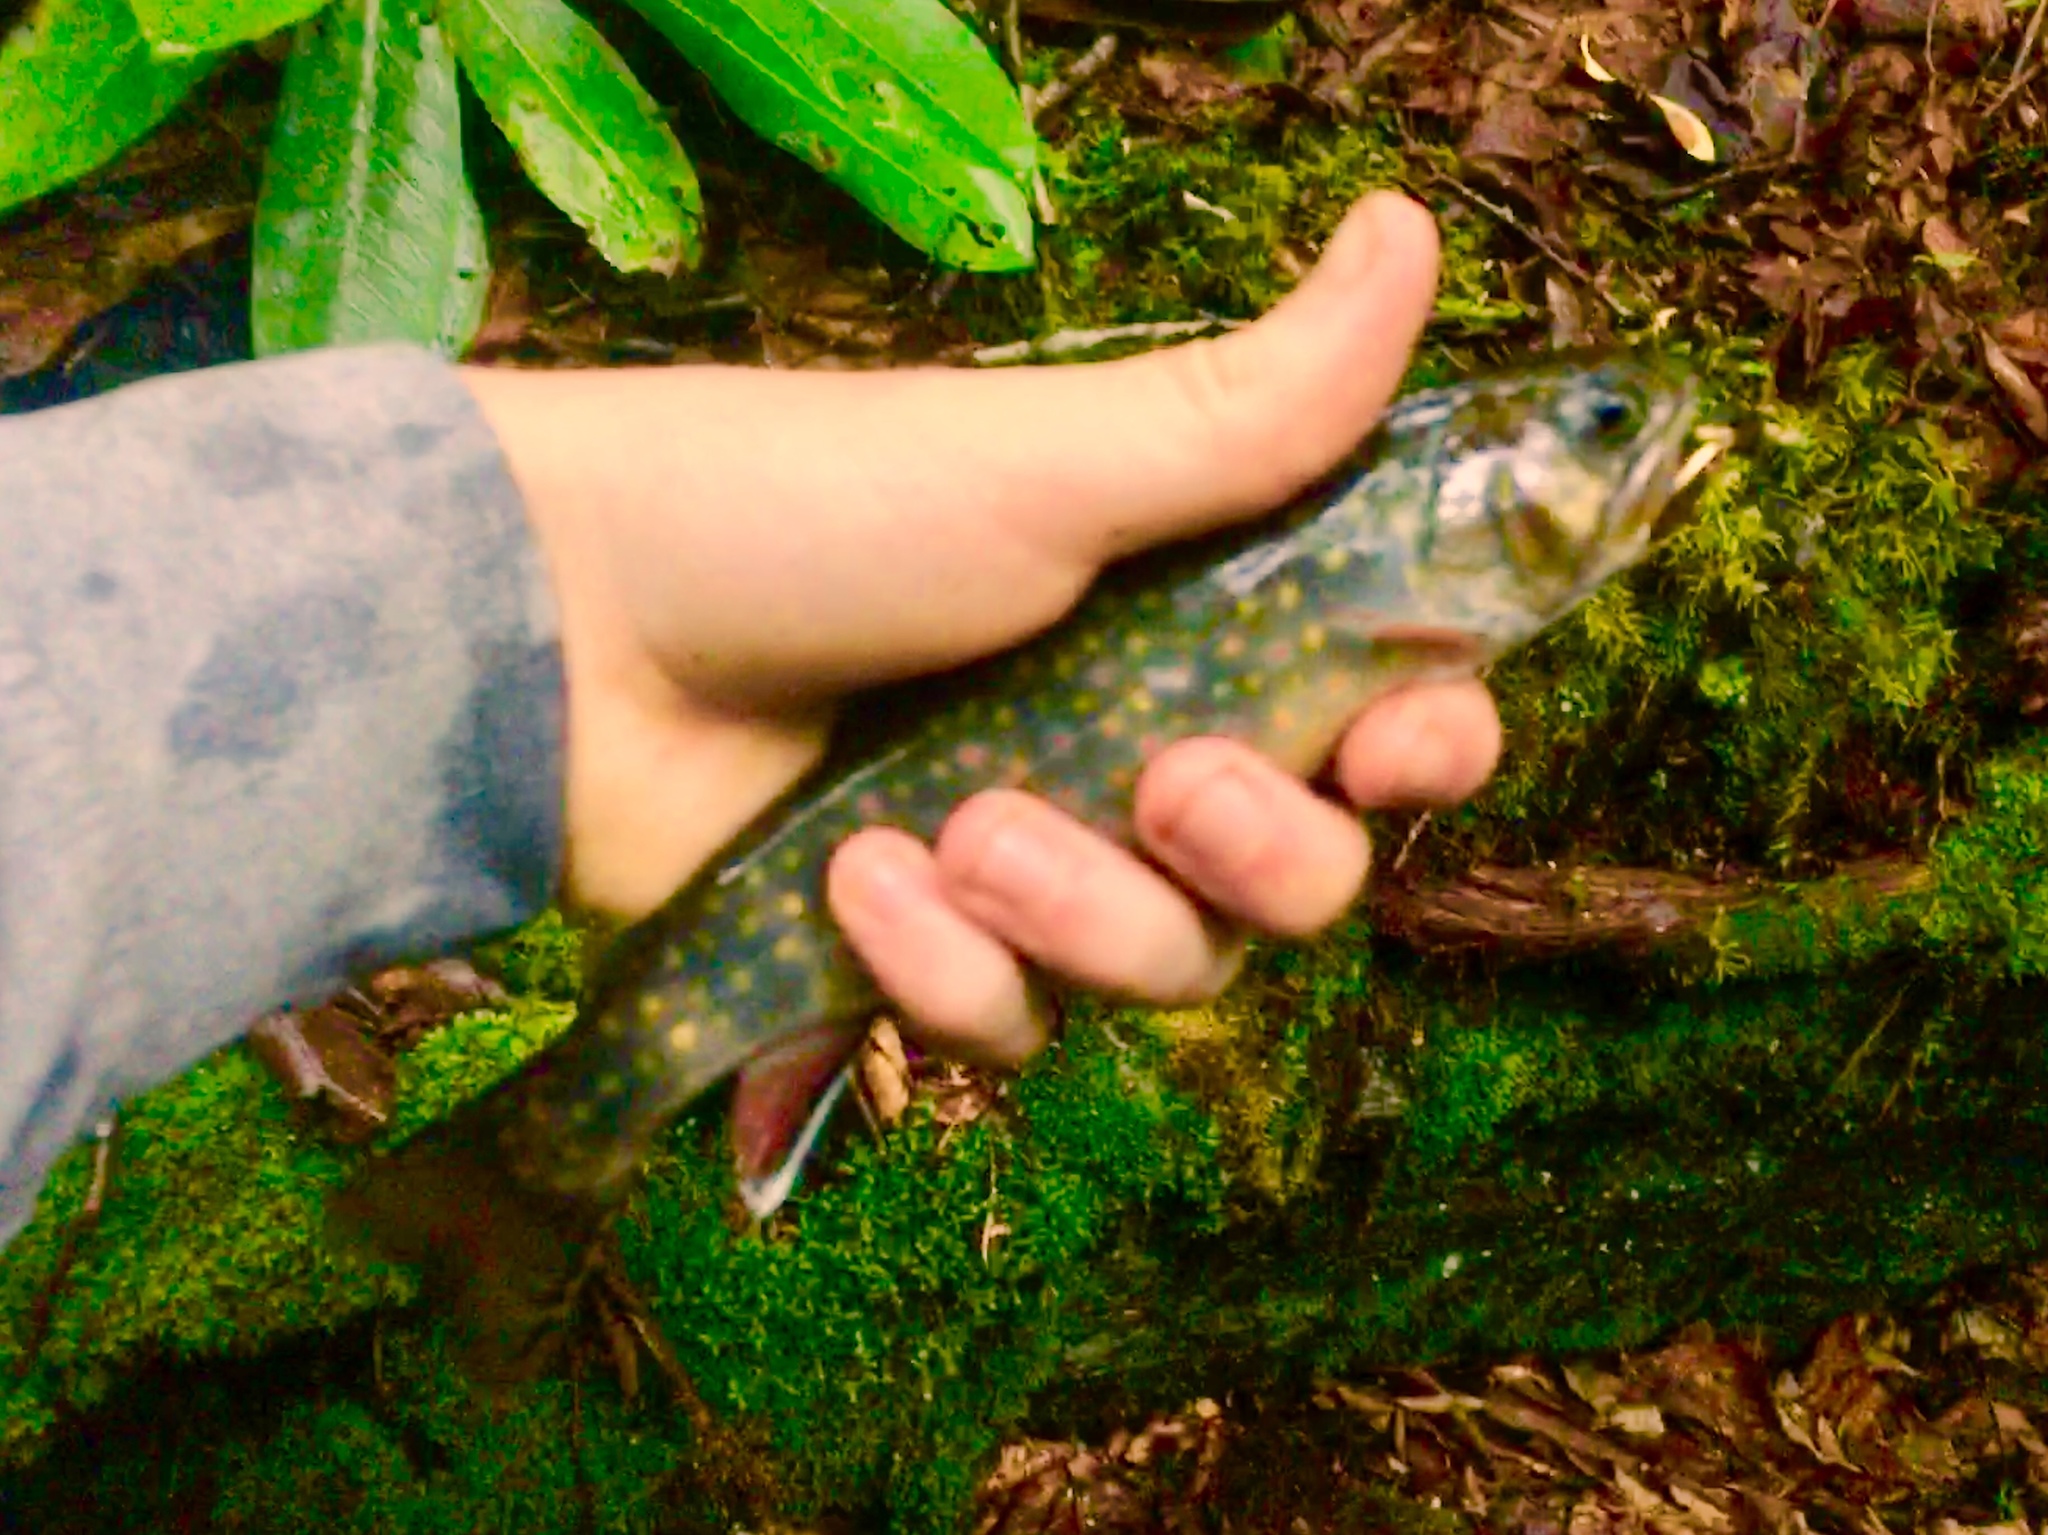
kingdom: Animalia
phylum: Chordata
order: Salmoniformes
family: Salmonidae
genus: Salvelinus
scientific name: Salvelinus fontinalis
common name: Brook trout
